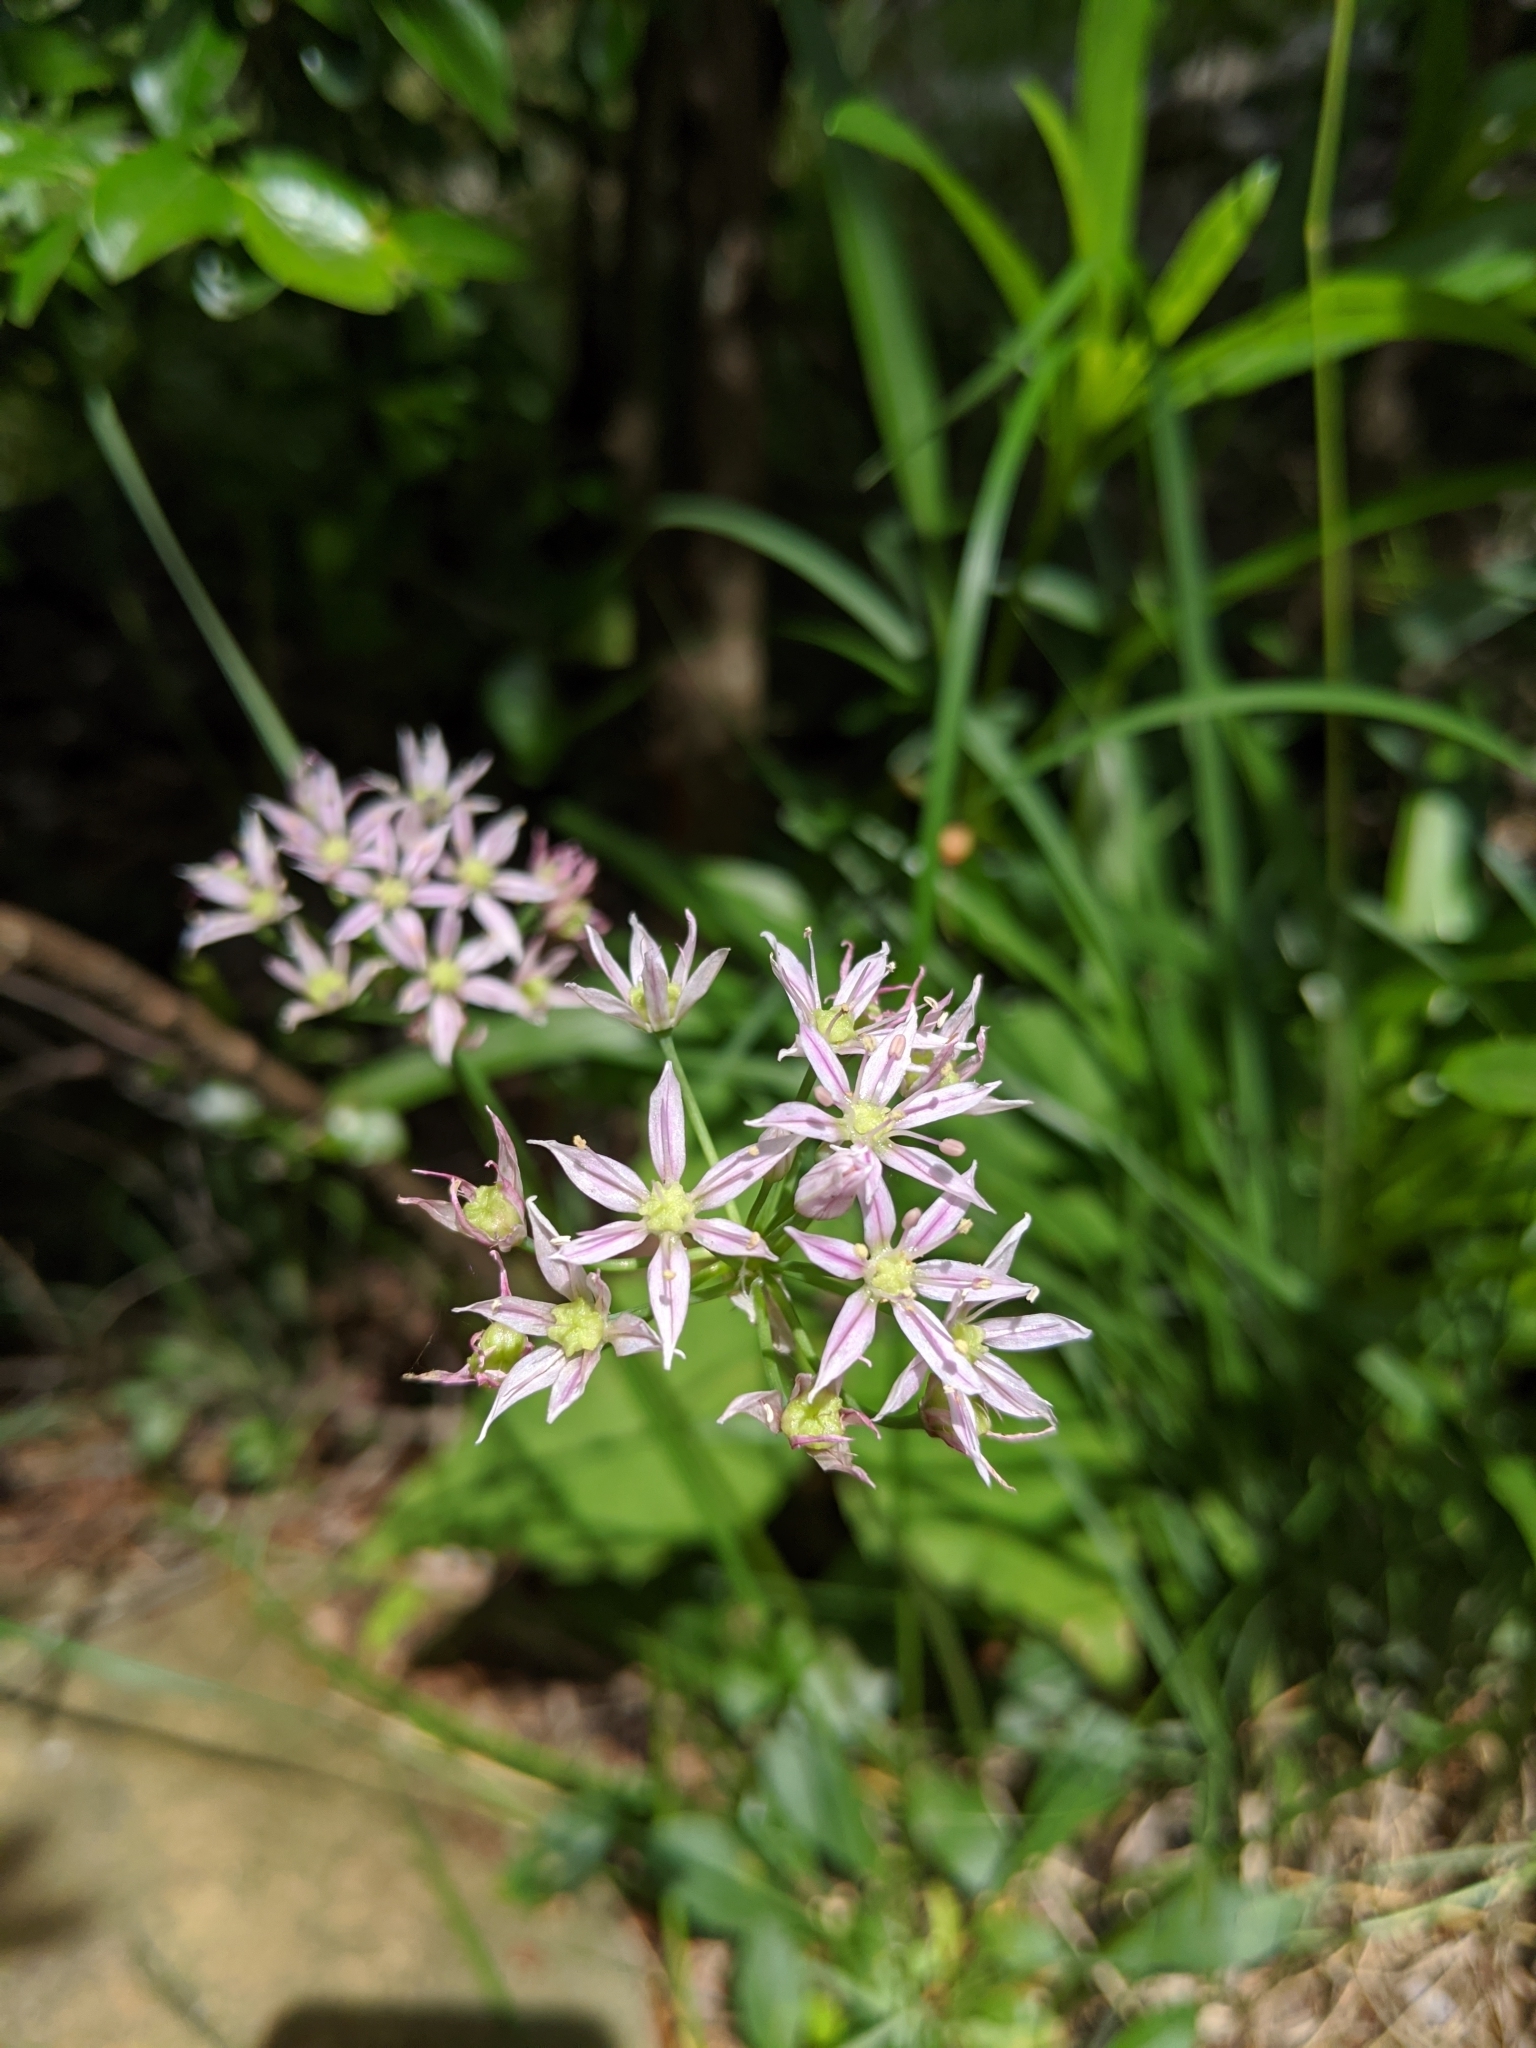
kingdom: Plantae
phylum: Tracheophyta
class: Liliopsida
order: Asparagales
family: Amaryllidaceae
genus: Allium
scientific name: Allium speculae
